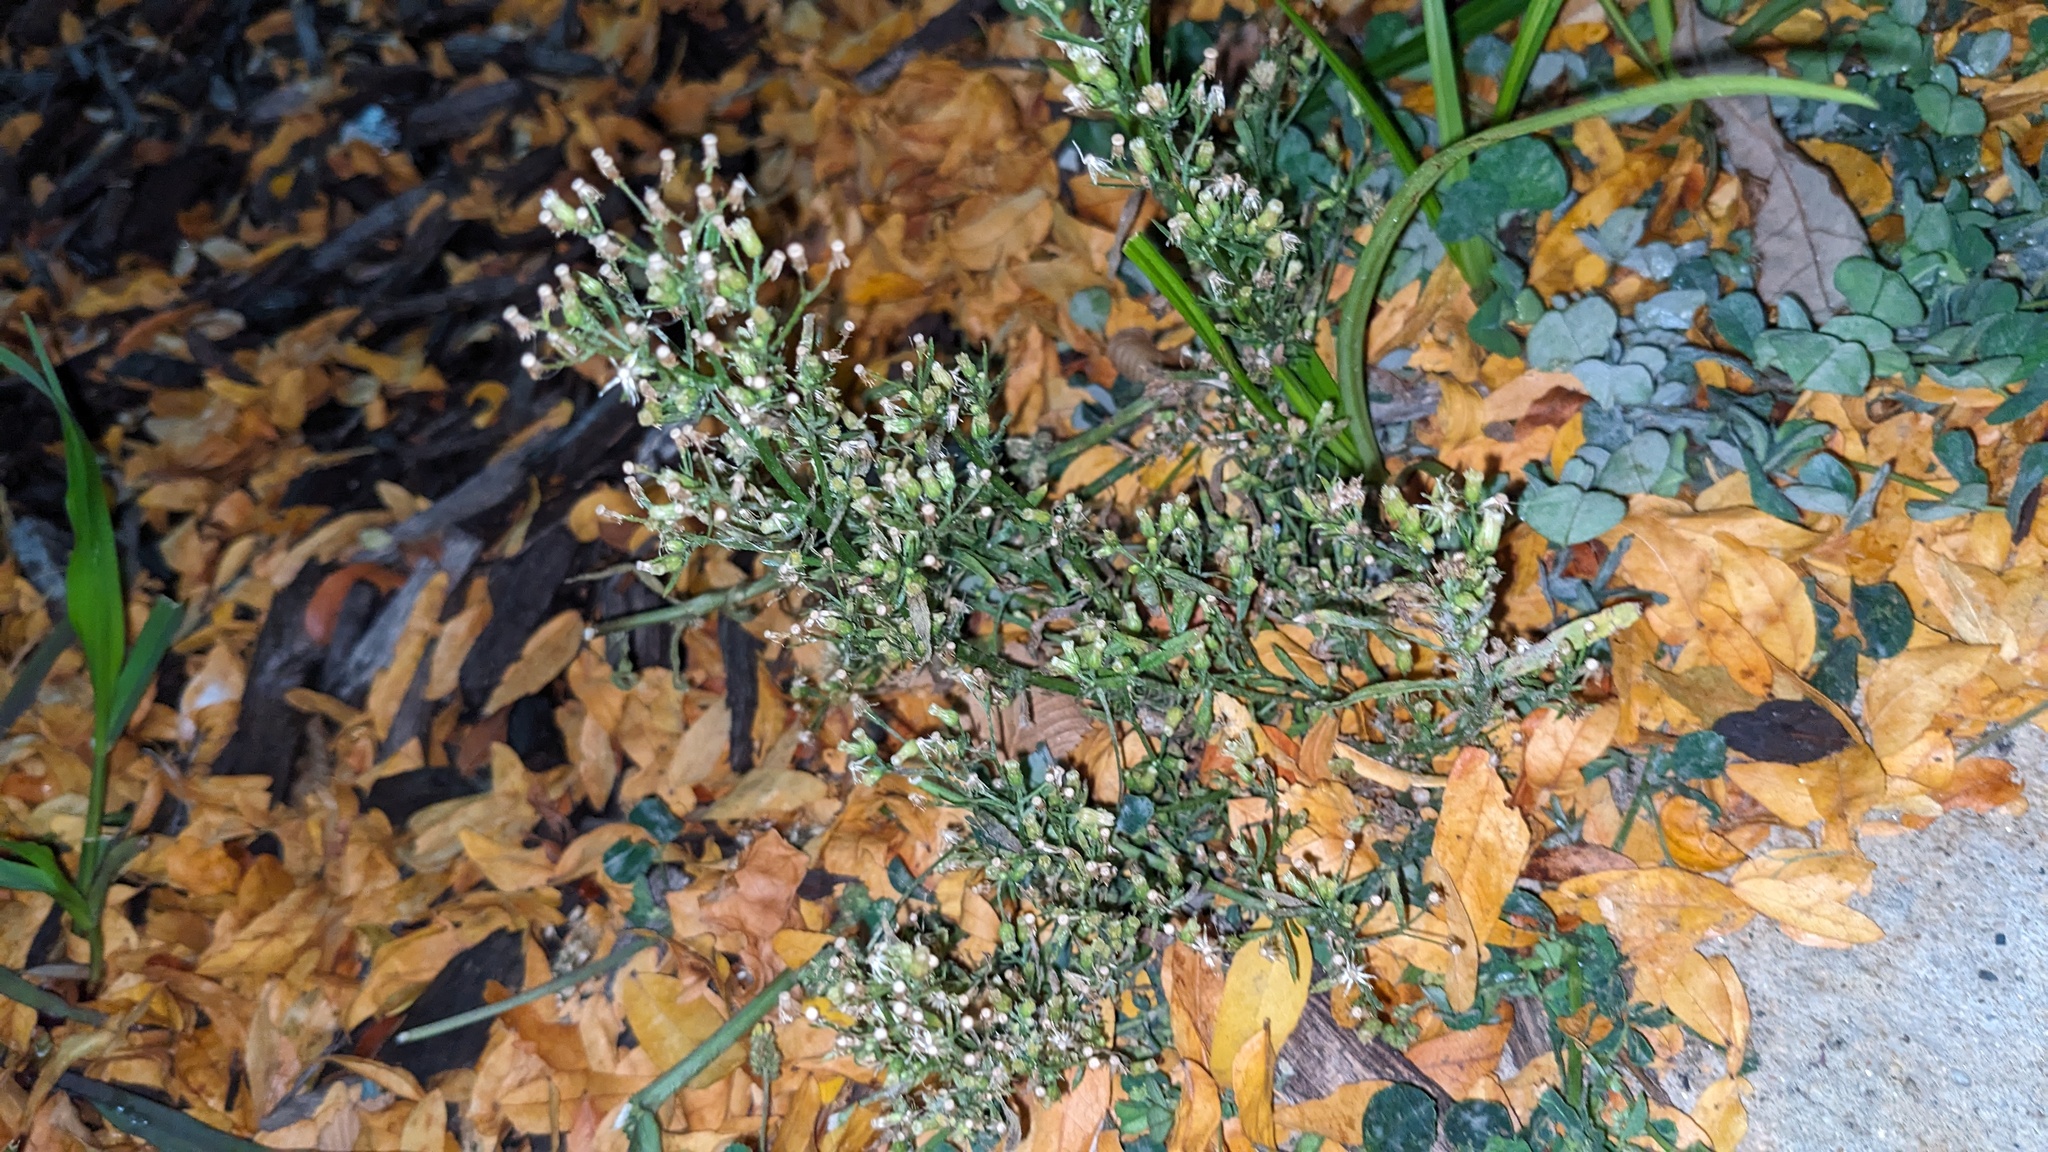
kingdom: Plantae
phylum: Tracheophyta
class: Magnoliopsida
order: Asterales
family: Asteraceae
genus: Erigeron
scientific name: Erigeron canadensis
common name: Canadian fleabane
